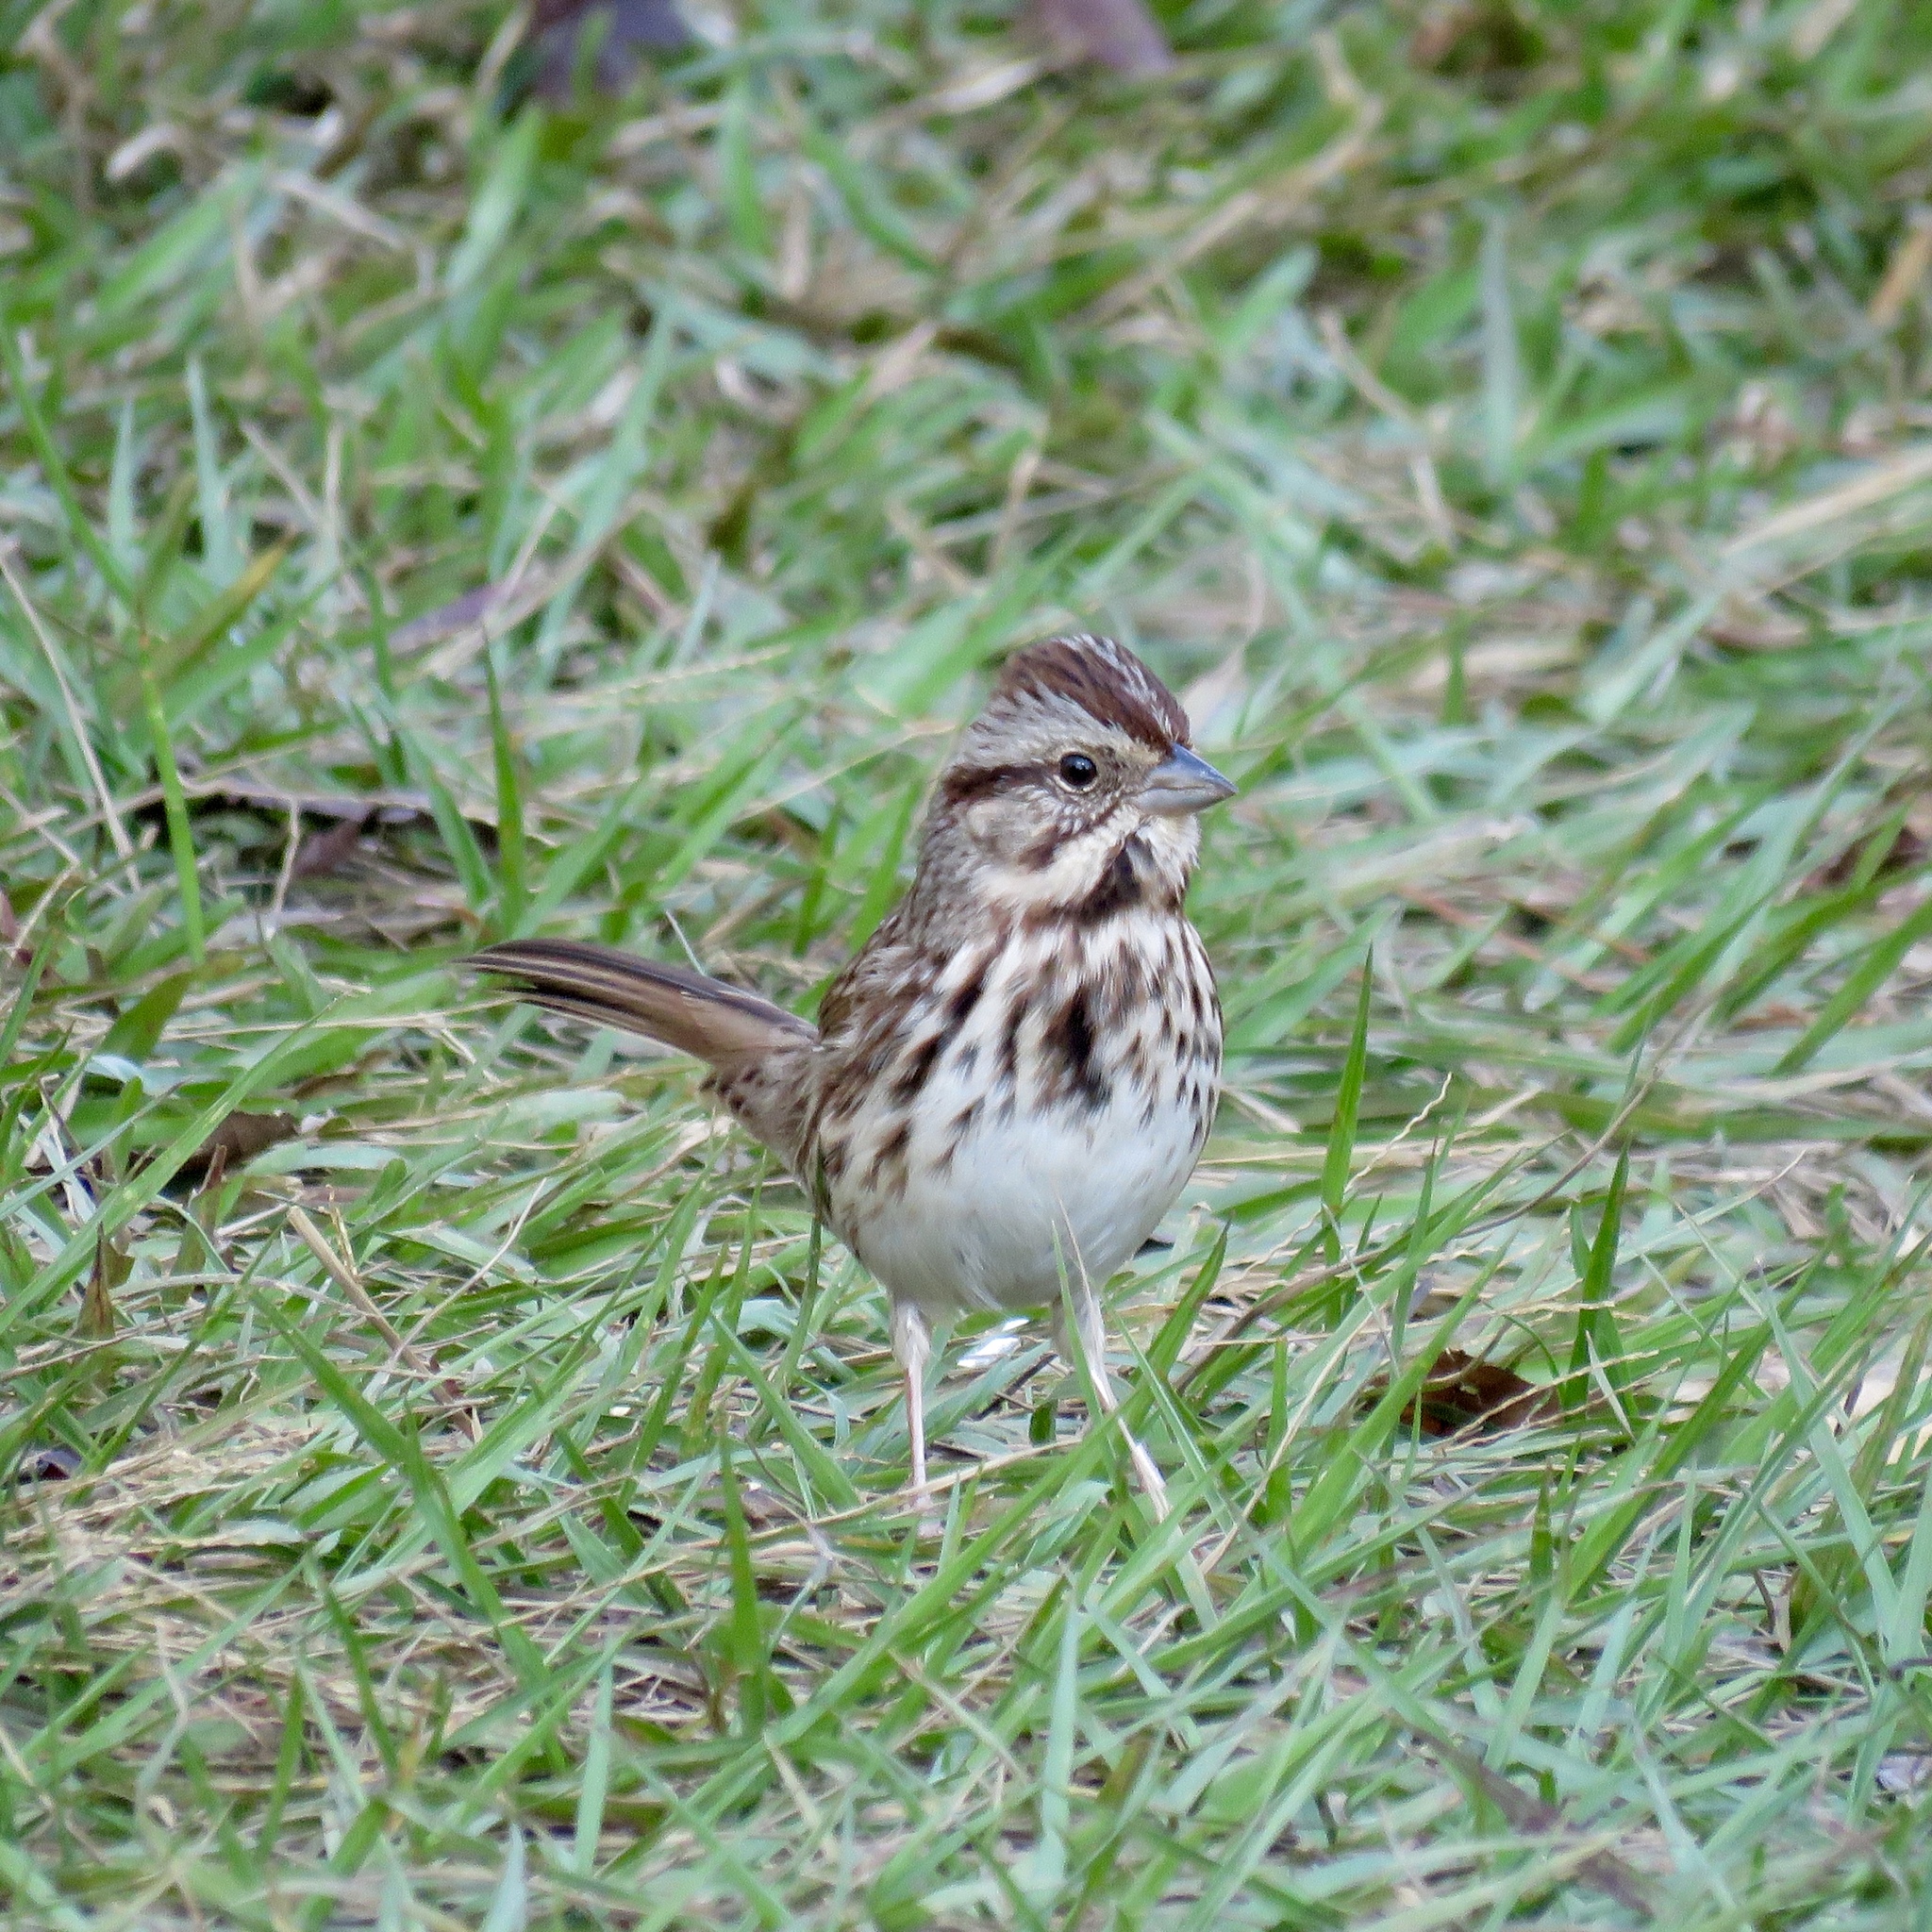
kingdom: Animalia
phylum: Chordata
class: Aves
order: Passeriformes
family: Passerellidae
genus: Melospiza
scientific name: Melospiza melodia
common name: Song sparrow
